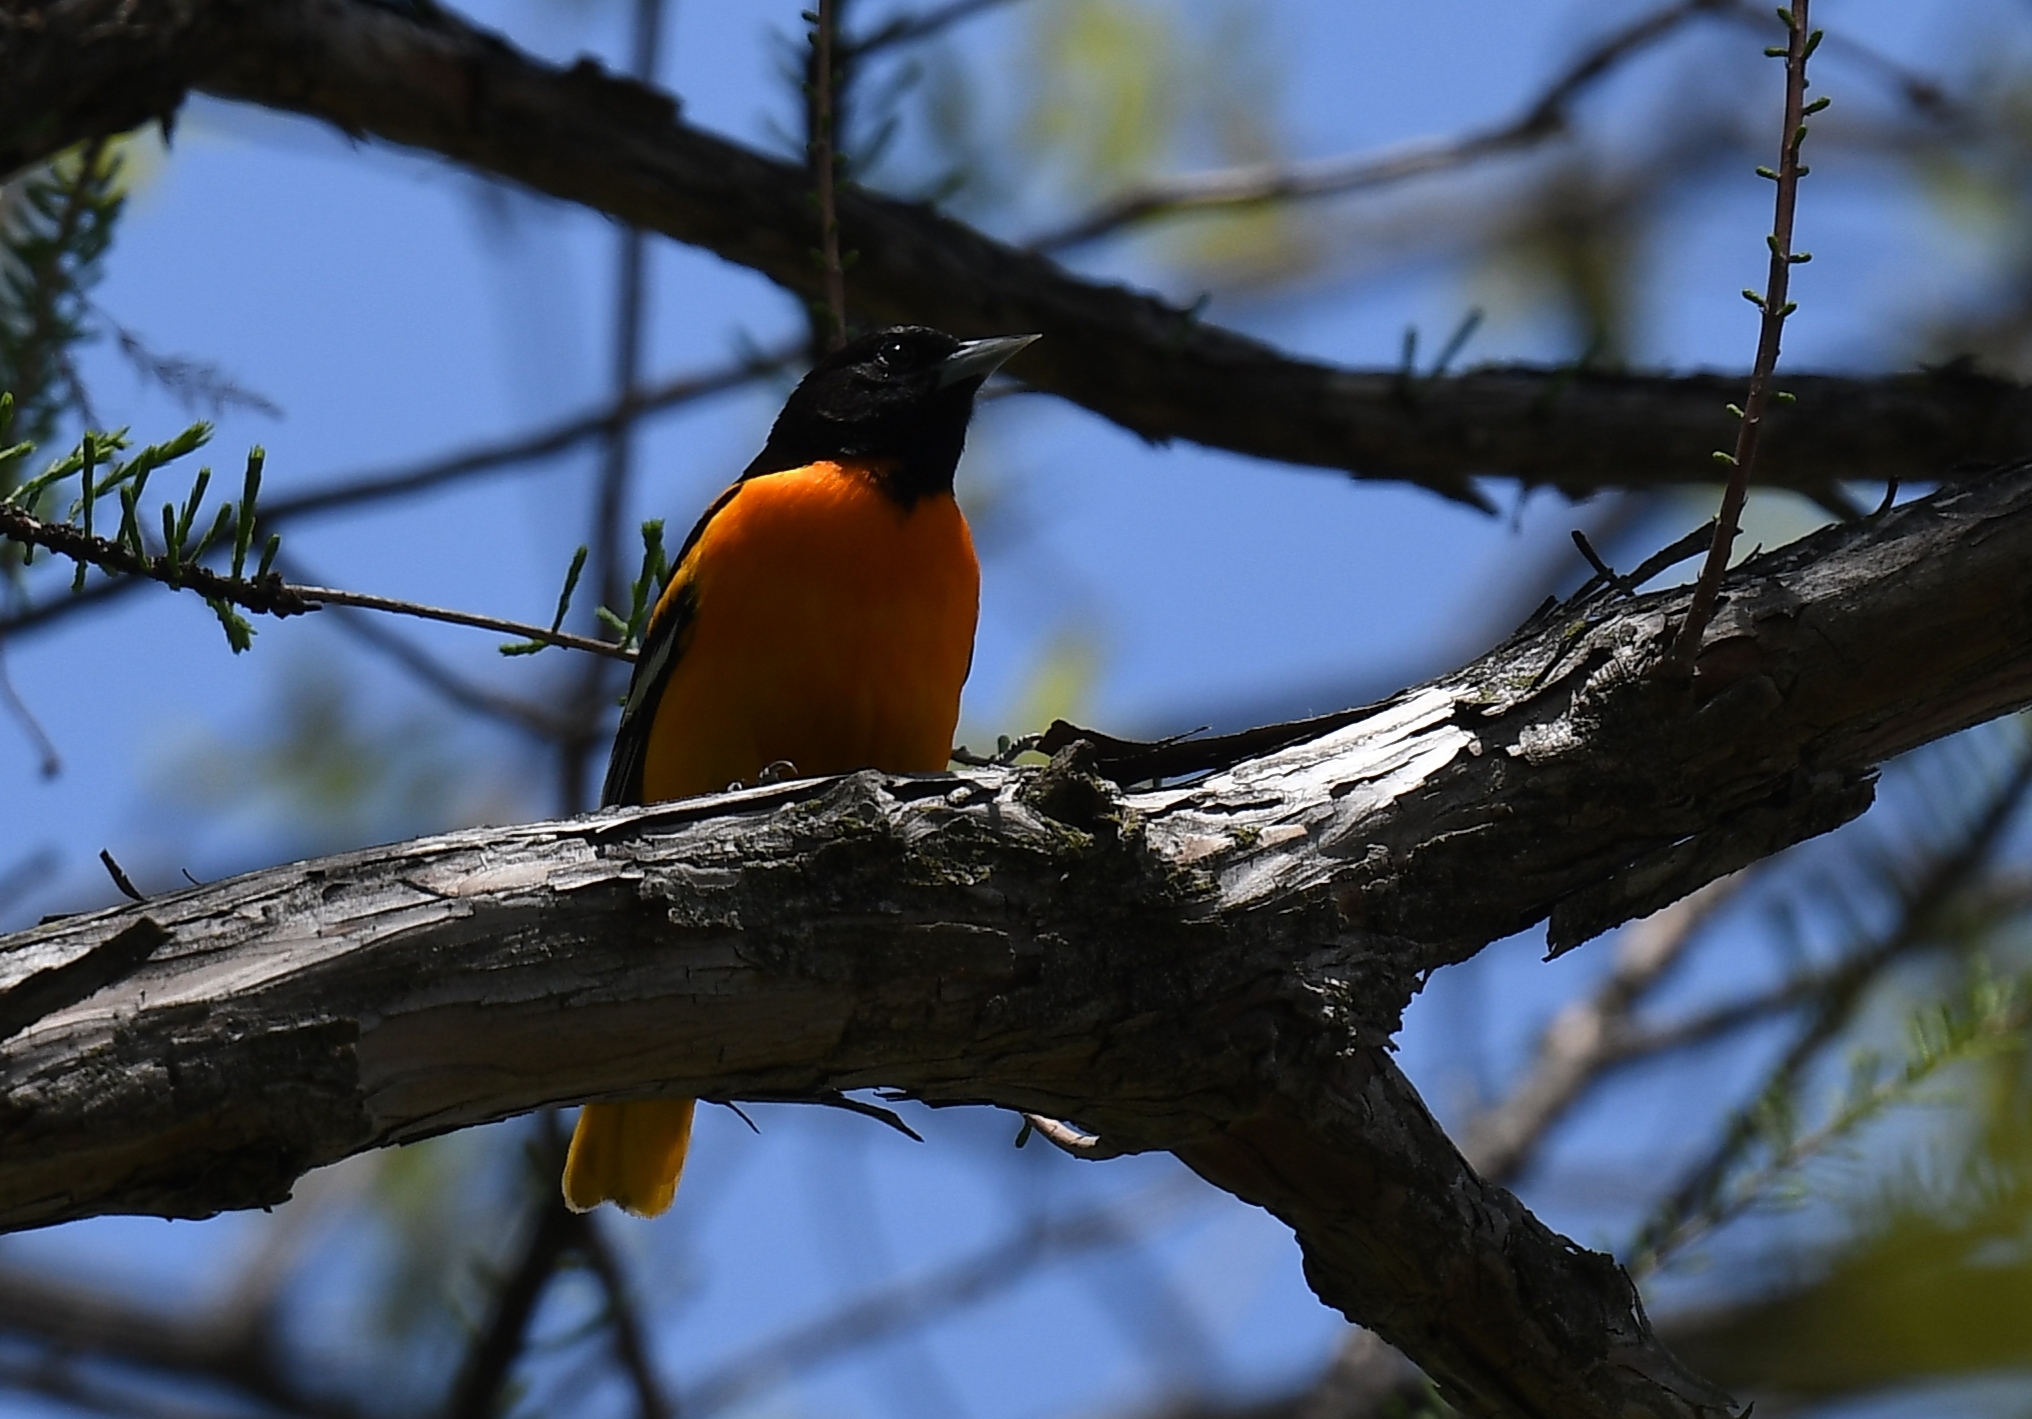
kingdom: Animalia
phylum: Chordata
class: Aves
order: Passeriformes
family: Icteridae
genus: Icterus
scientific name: Icterus galbula
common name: Baltimore oriole
